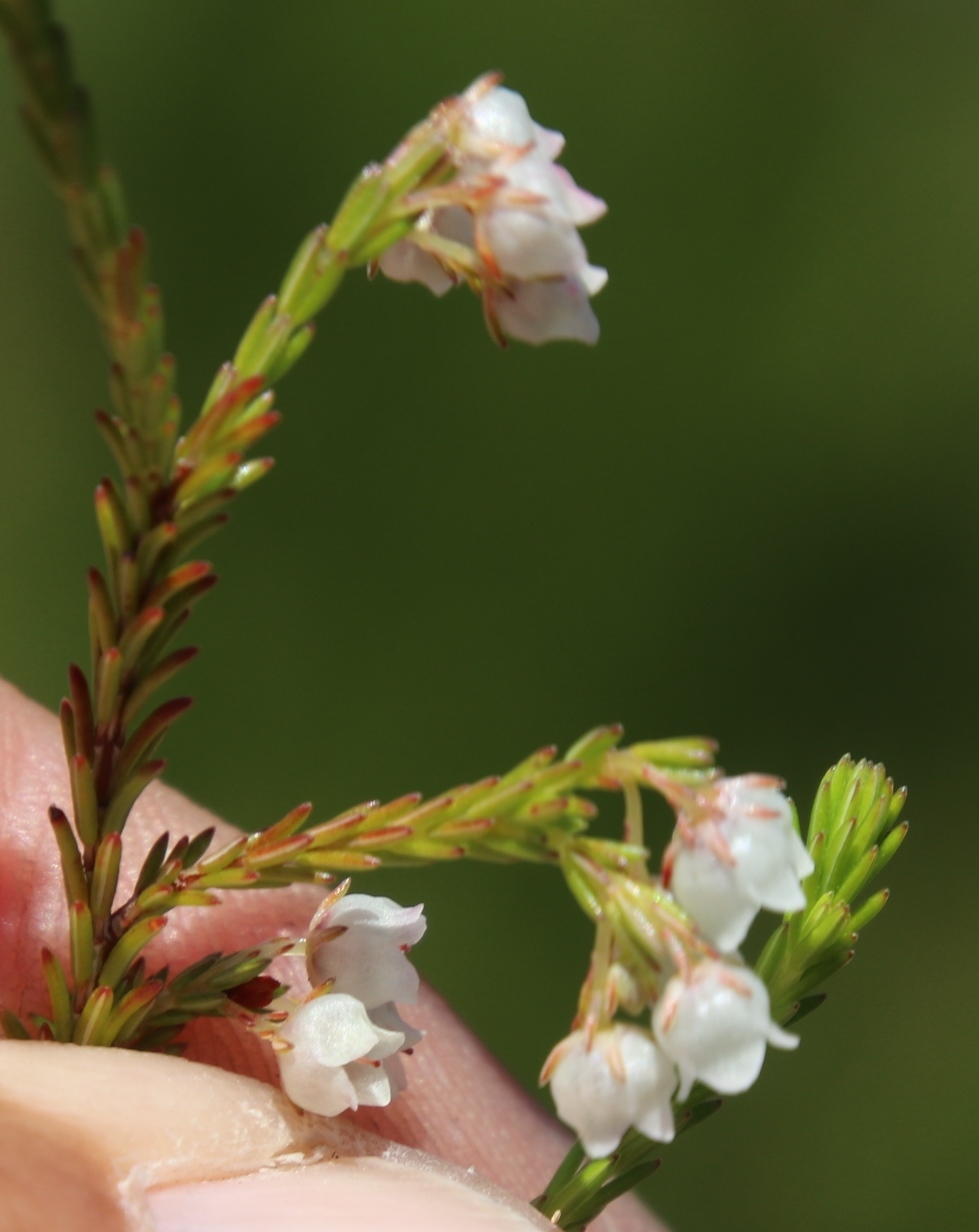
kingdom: Plantae
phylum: Tracheophyta
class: Magnoliopsida
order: Ericales
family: Ericaceae
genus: Erica
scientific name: Erica capensis
